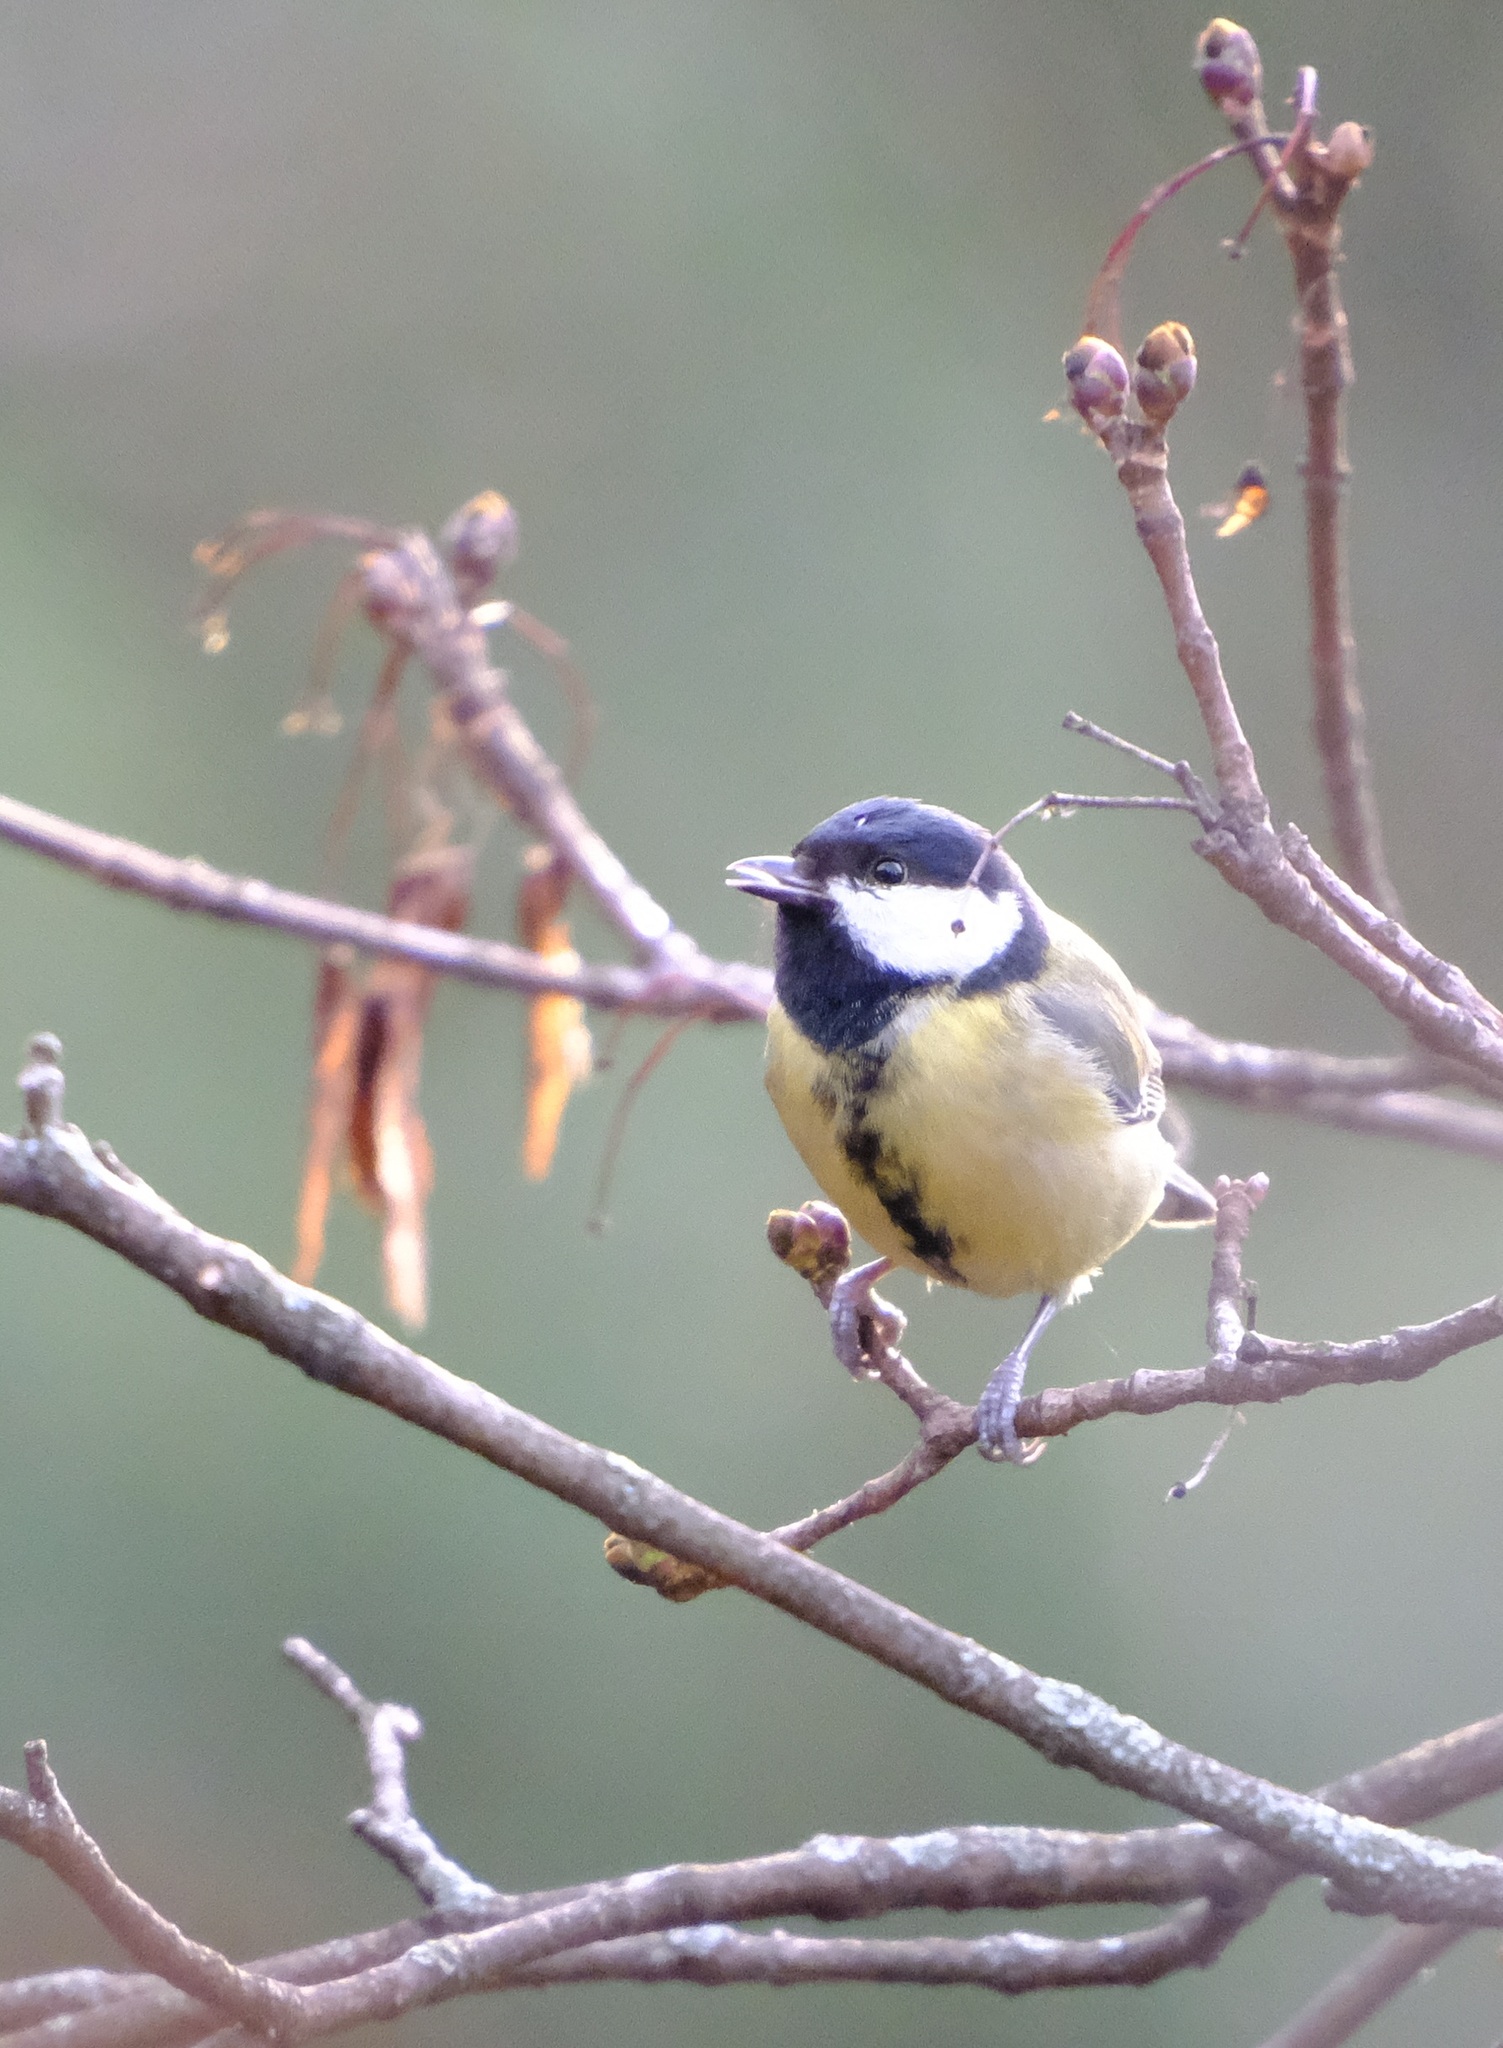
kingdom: Animalia
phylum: Chordata
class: Aves
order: Passeriformes
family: Paridae
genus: Parus
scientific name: Parus major
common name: Great tit
